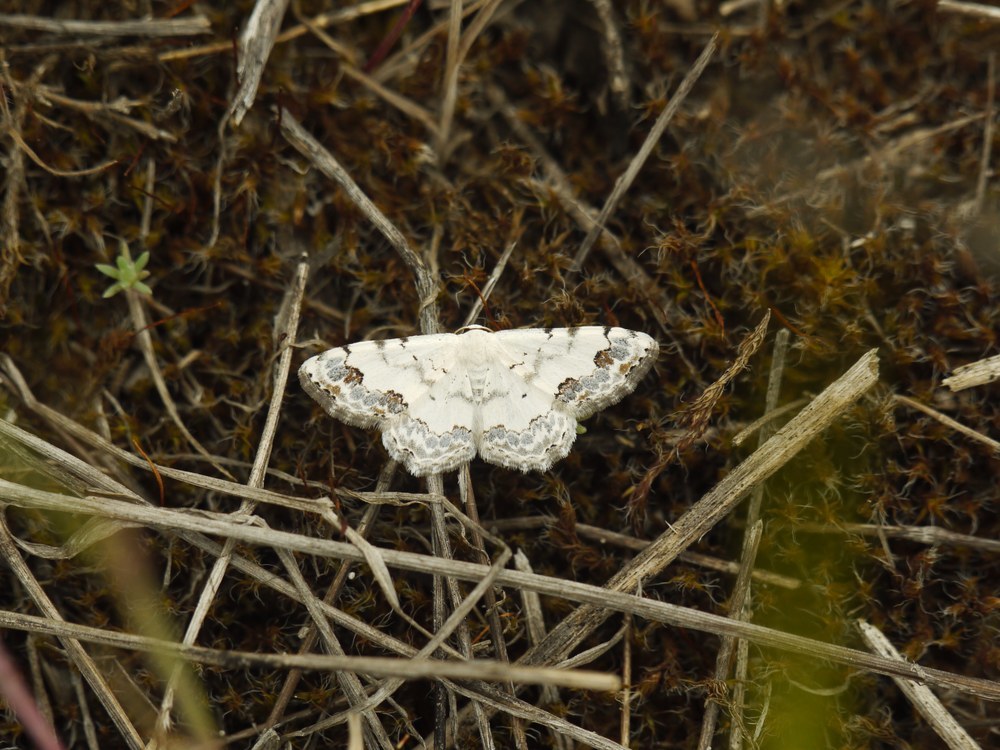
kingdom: Animalia
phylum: Arthropoda
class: Insecta
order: Lepidoptera
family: Geometridae
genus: Scopula
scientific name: Scopula decorata
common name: Middle lace border
